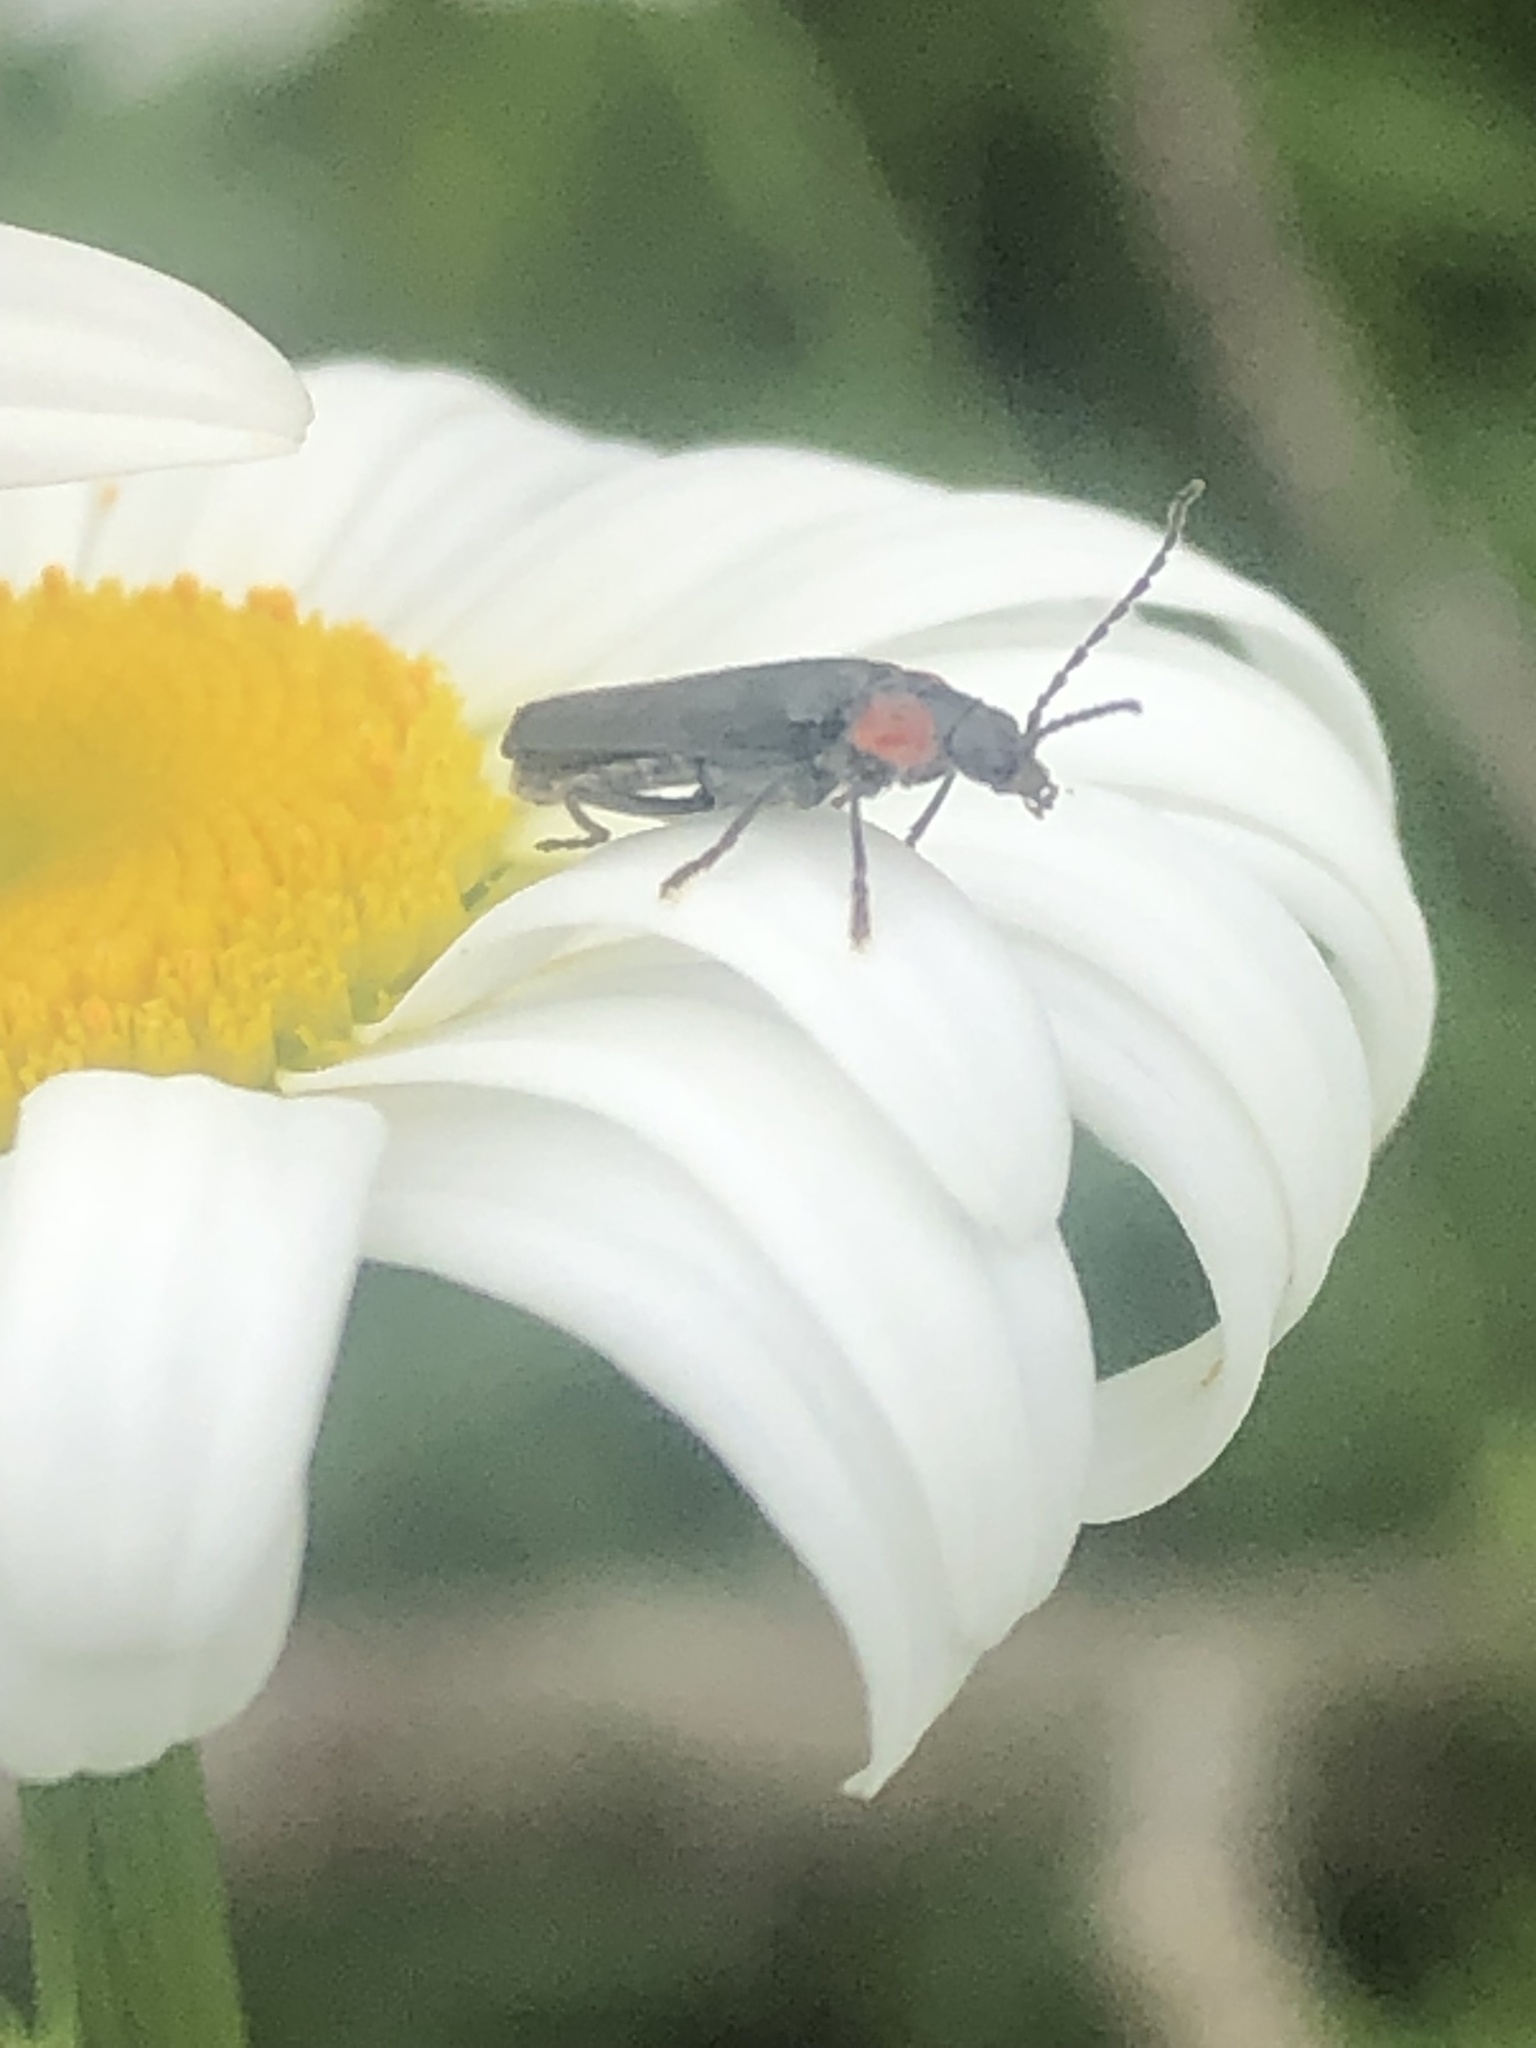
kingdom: Animalia
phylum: Arthropoda
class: Insecta
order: Coleoptera
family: Cantharidae
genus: Cantharis
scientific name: Cantharis tuberculata
